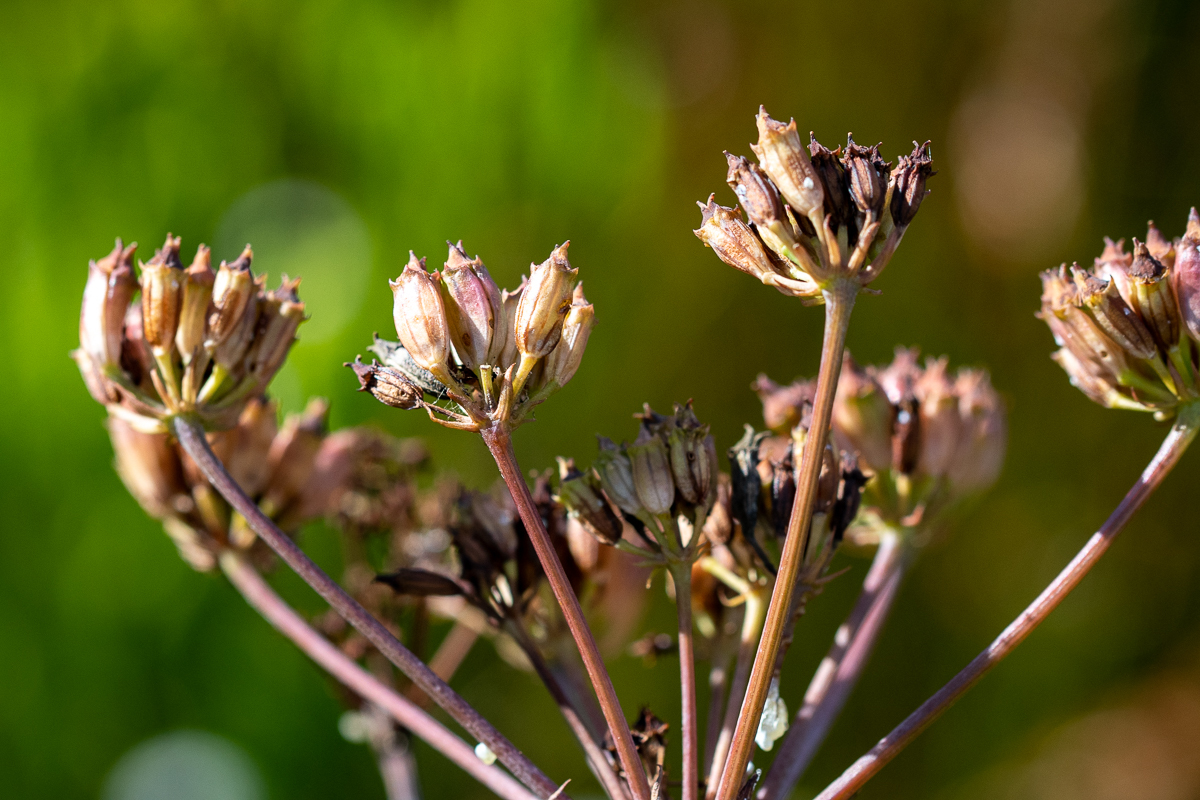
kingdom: Plantae
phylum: Tracheophyta
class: Magnoliopsida
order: Apiales
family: Apiaceae
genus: Lichtensteinia
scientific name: Lichtensteinia lacera
